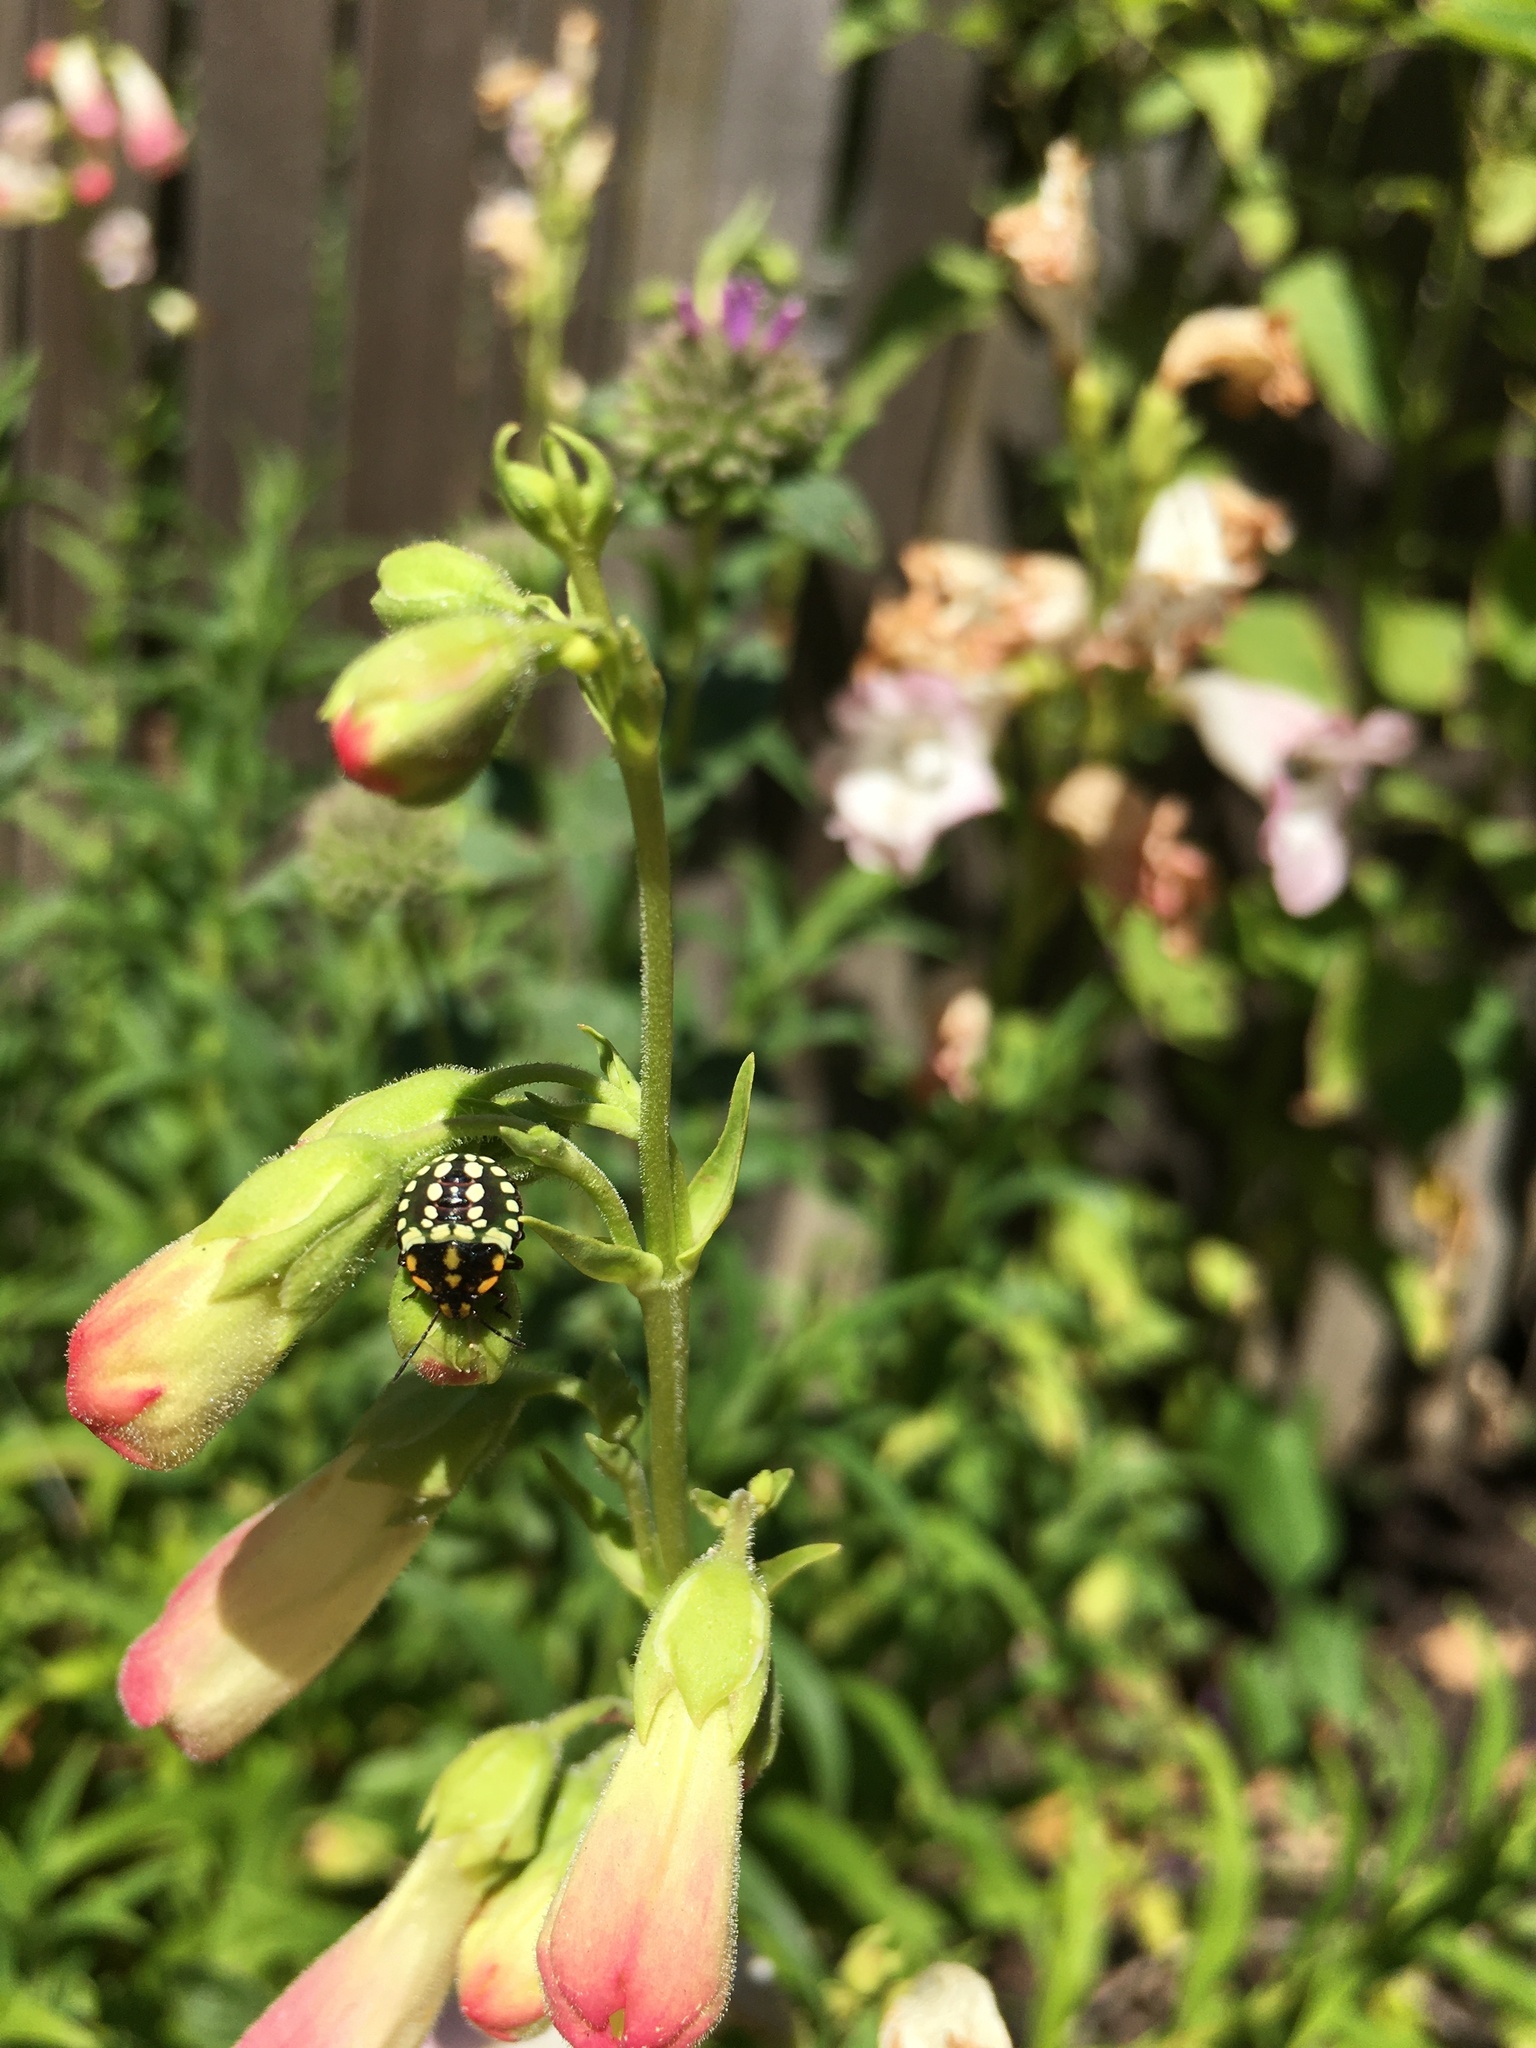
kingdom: Animalia
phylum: Arthropoda
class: Insecta
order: Hemiptera
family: Pentatomidae
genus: Nezara
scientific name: Nezara viridula
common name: Southern green stink bug
